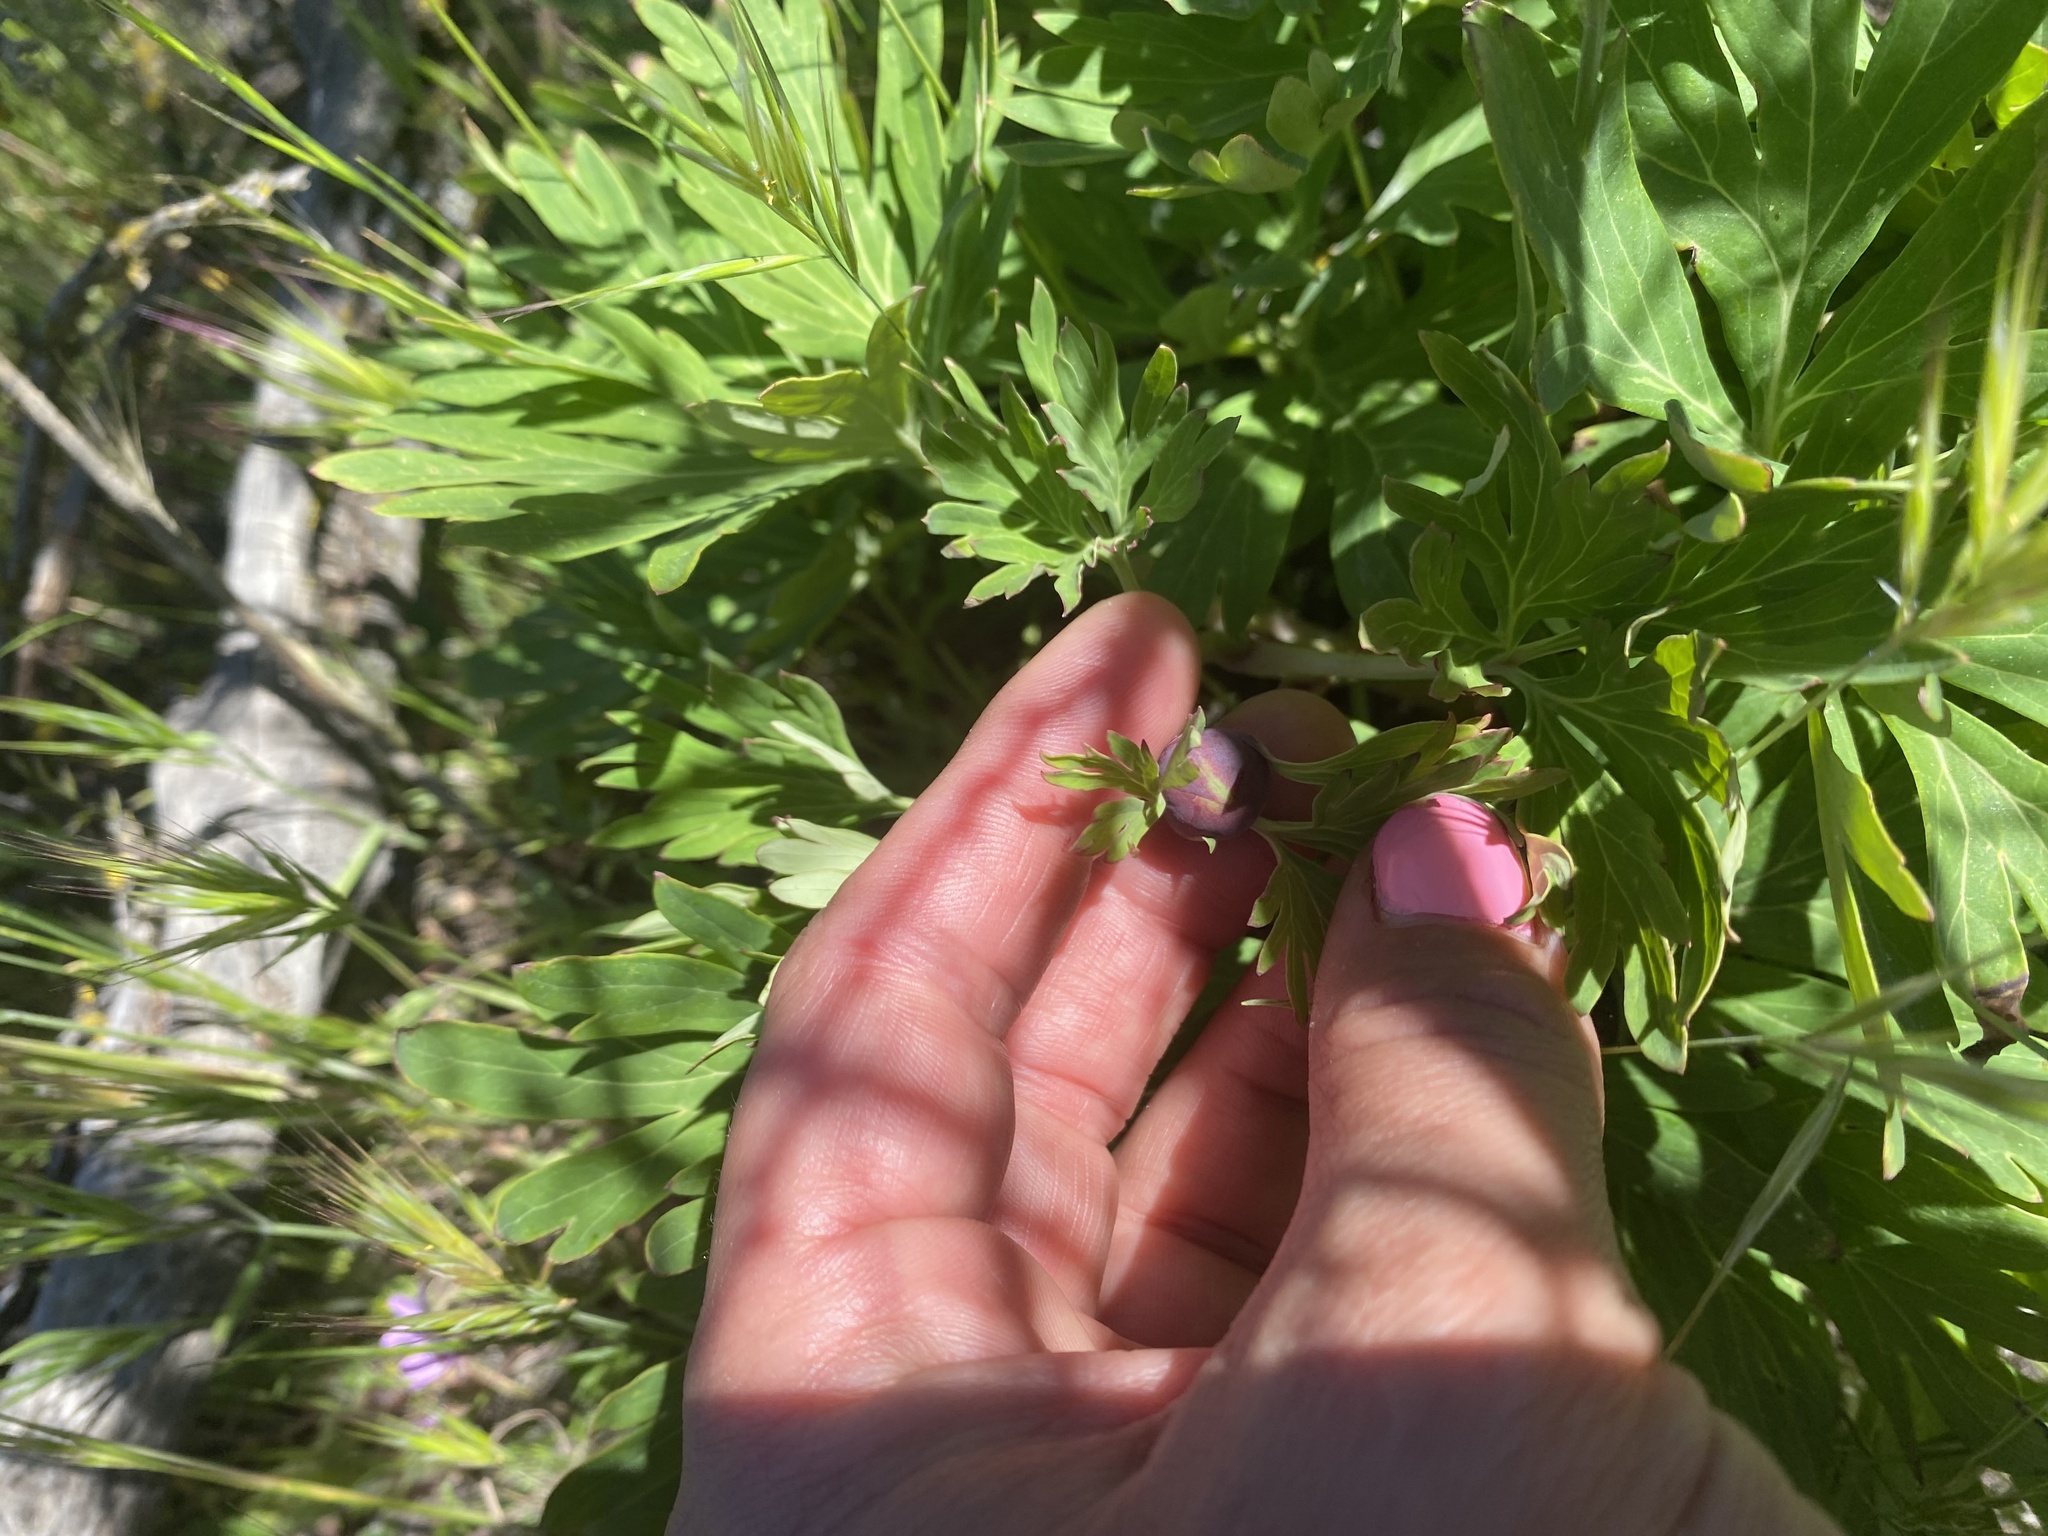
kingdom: Plantae
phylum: Tracheophyta
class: Magnoliopsida
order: Saxifragales
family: Paeoniaceae
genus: Paeonia
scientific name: Paeonia californica
